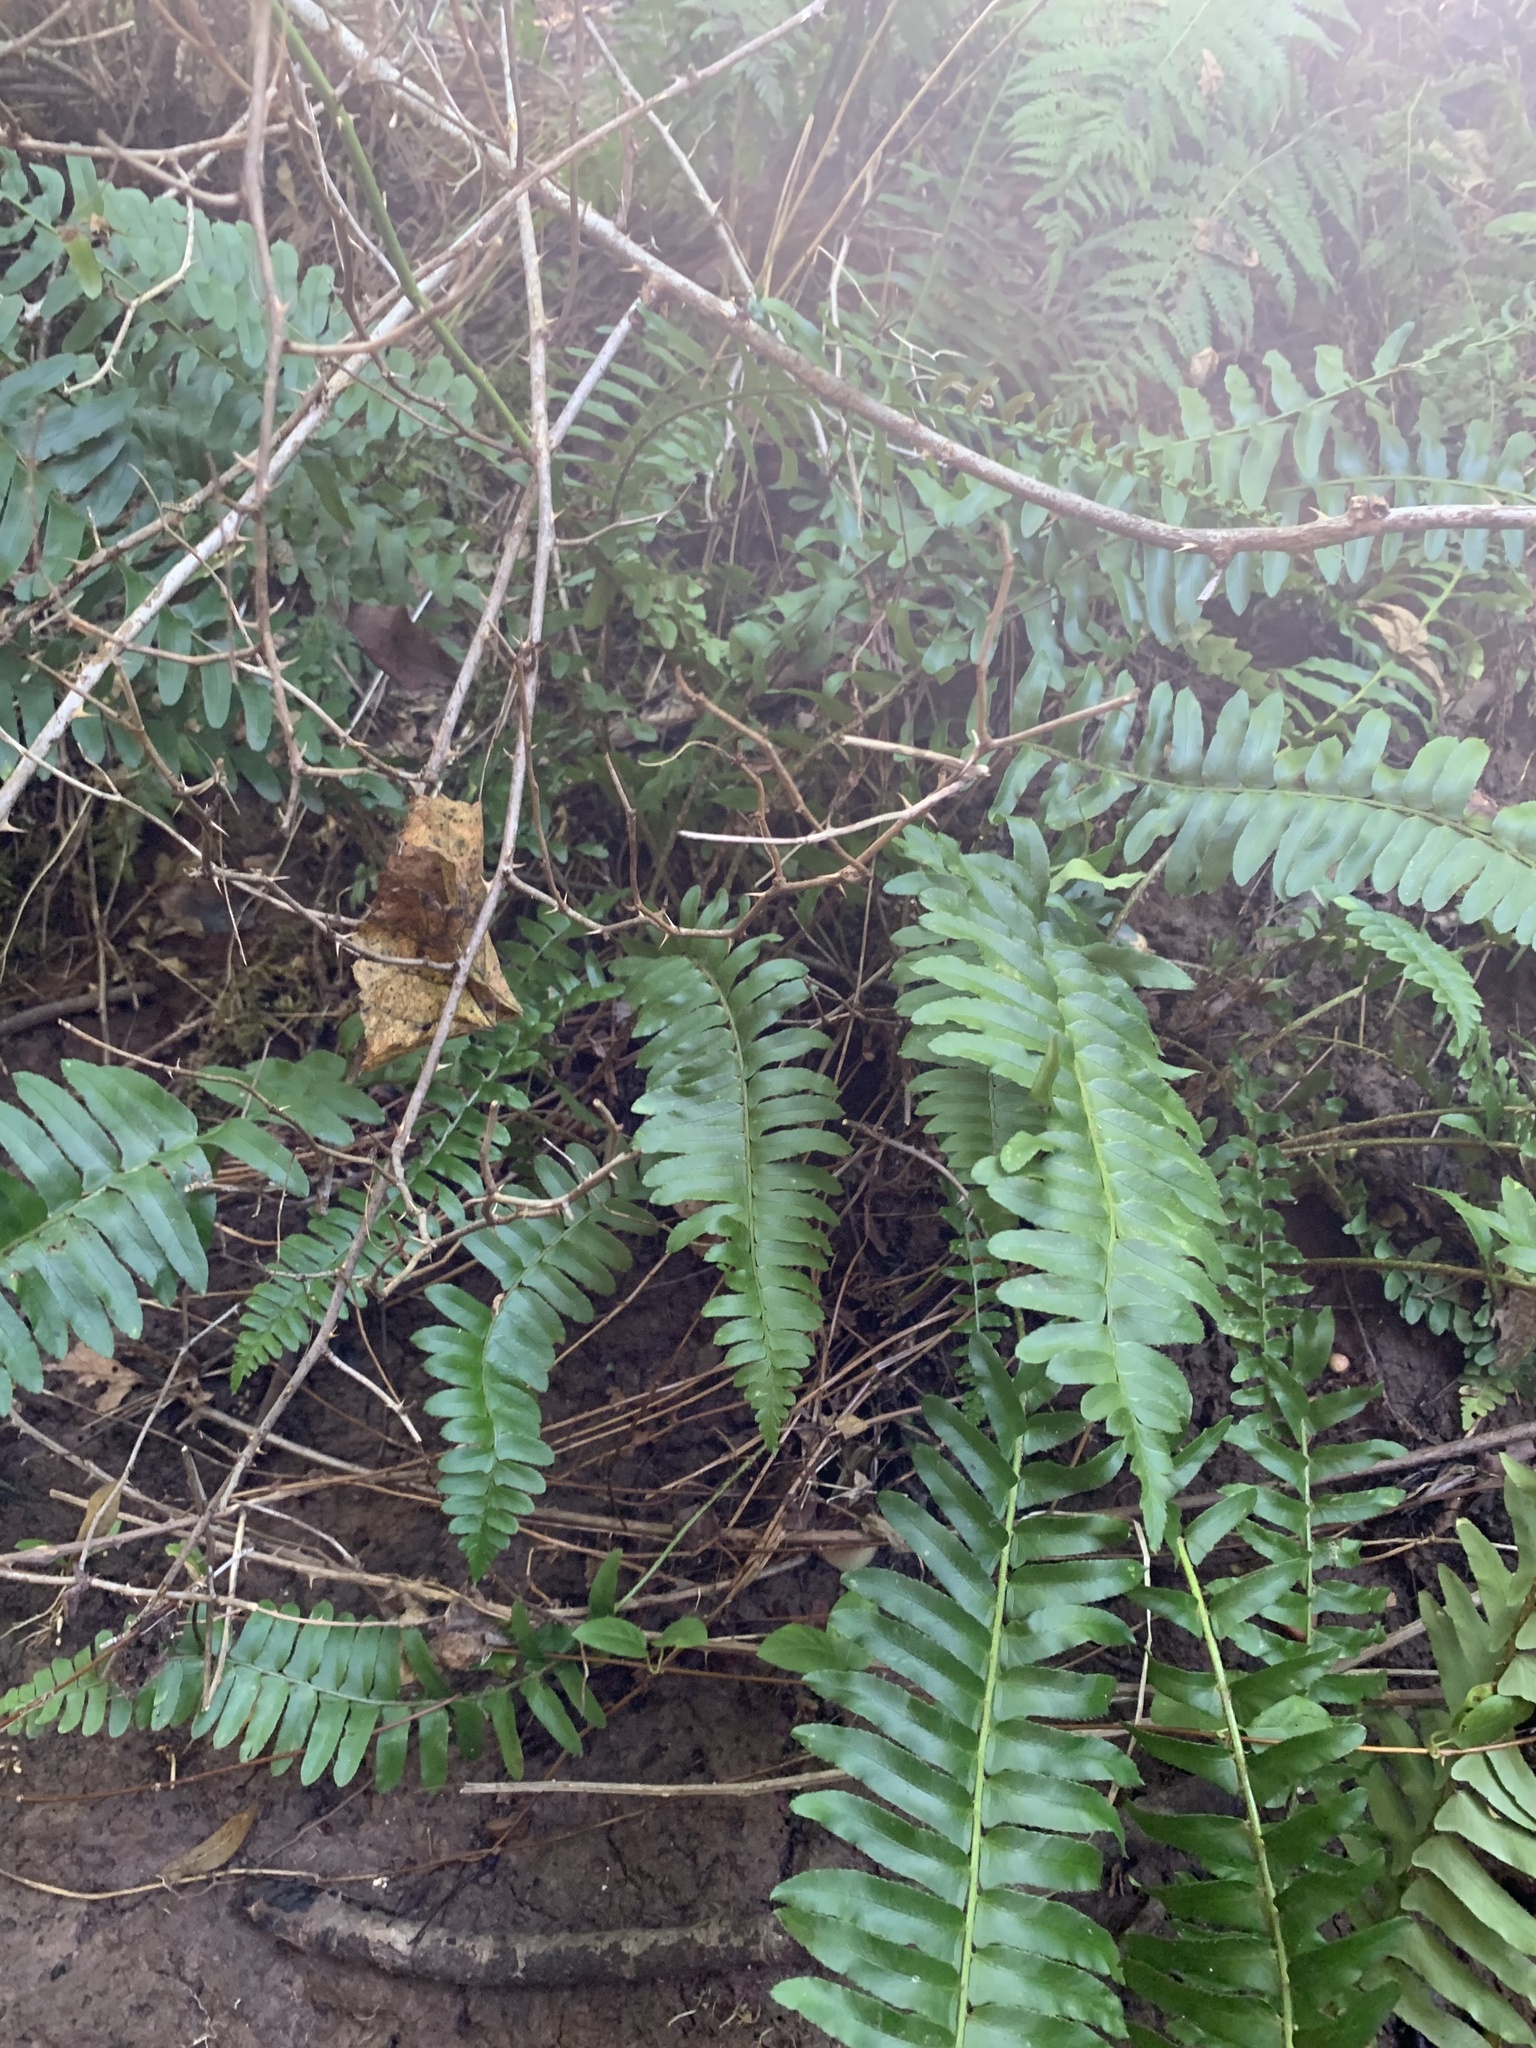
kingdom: Plantae
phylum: Tracheophyta
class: Polypodiopsida
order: Polypodiales
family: Dryopteridaceae
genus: Polystichum
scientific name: Polystichum acrostichoides
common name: Christmas fern
